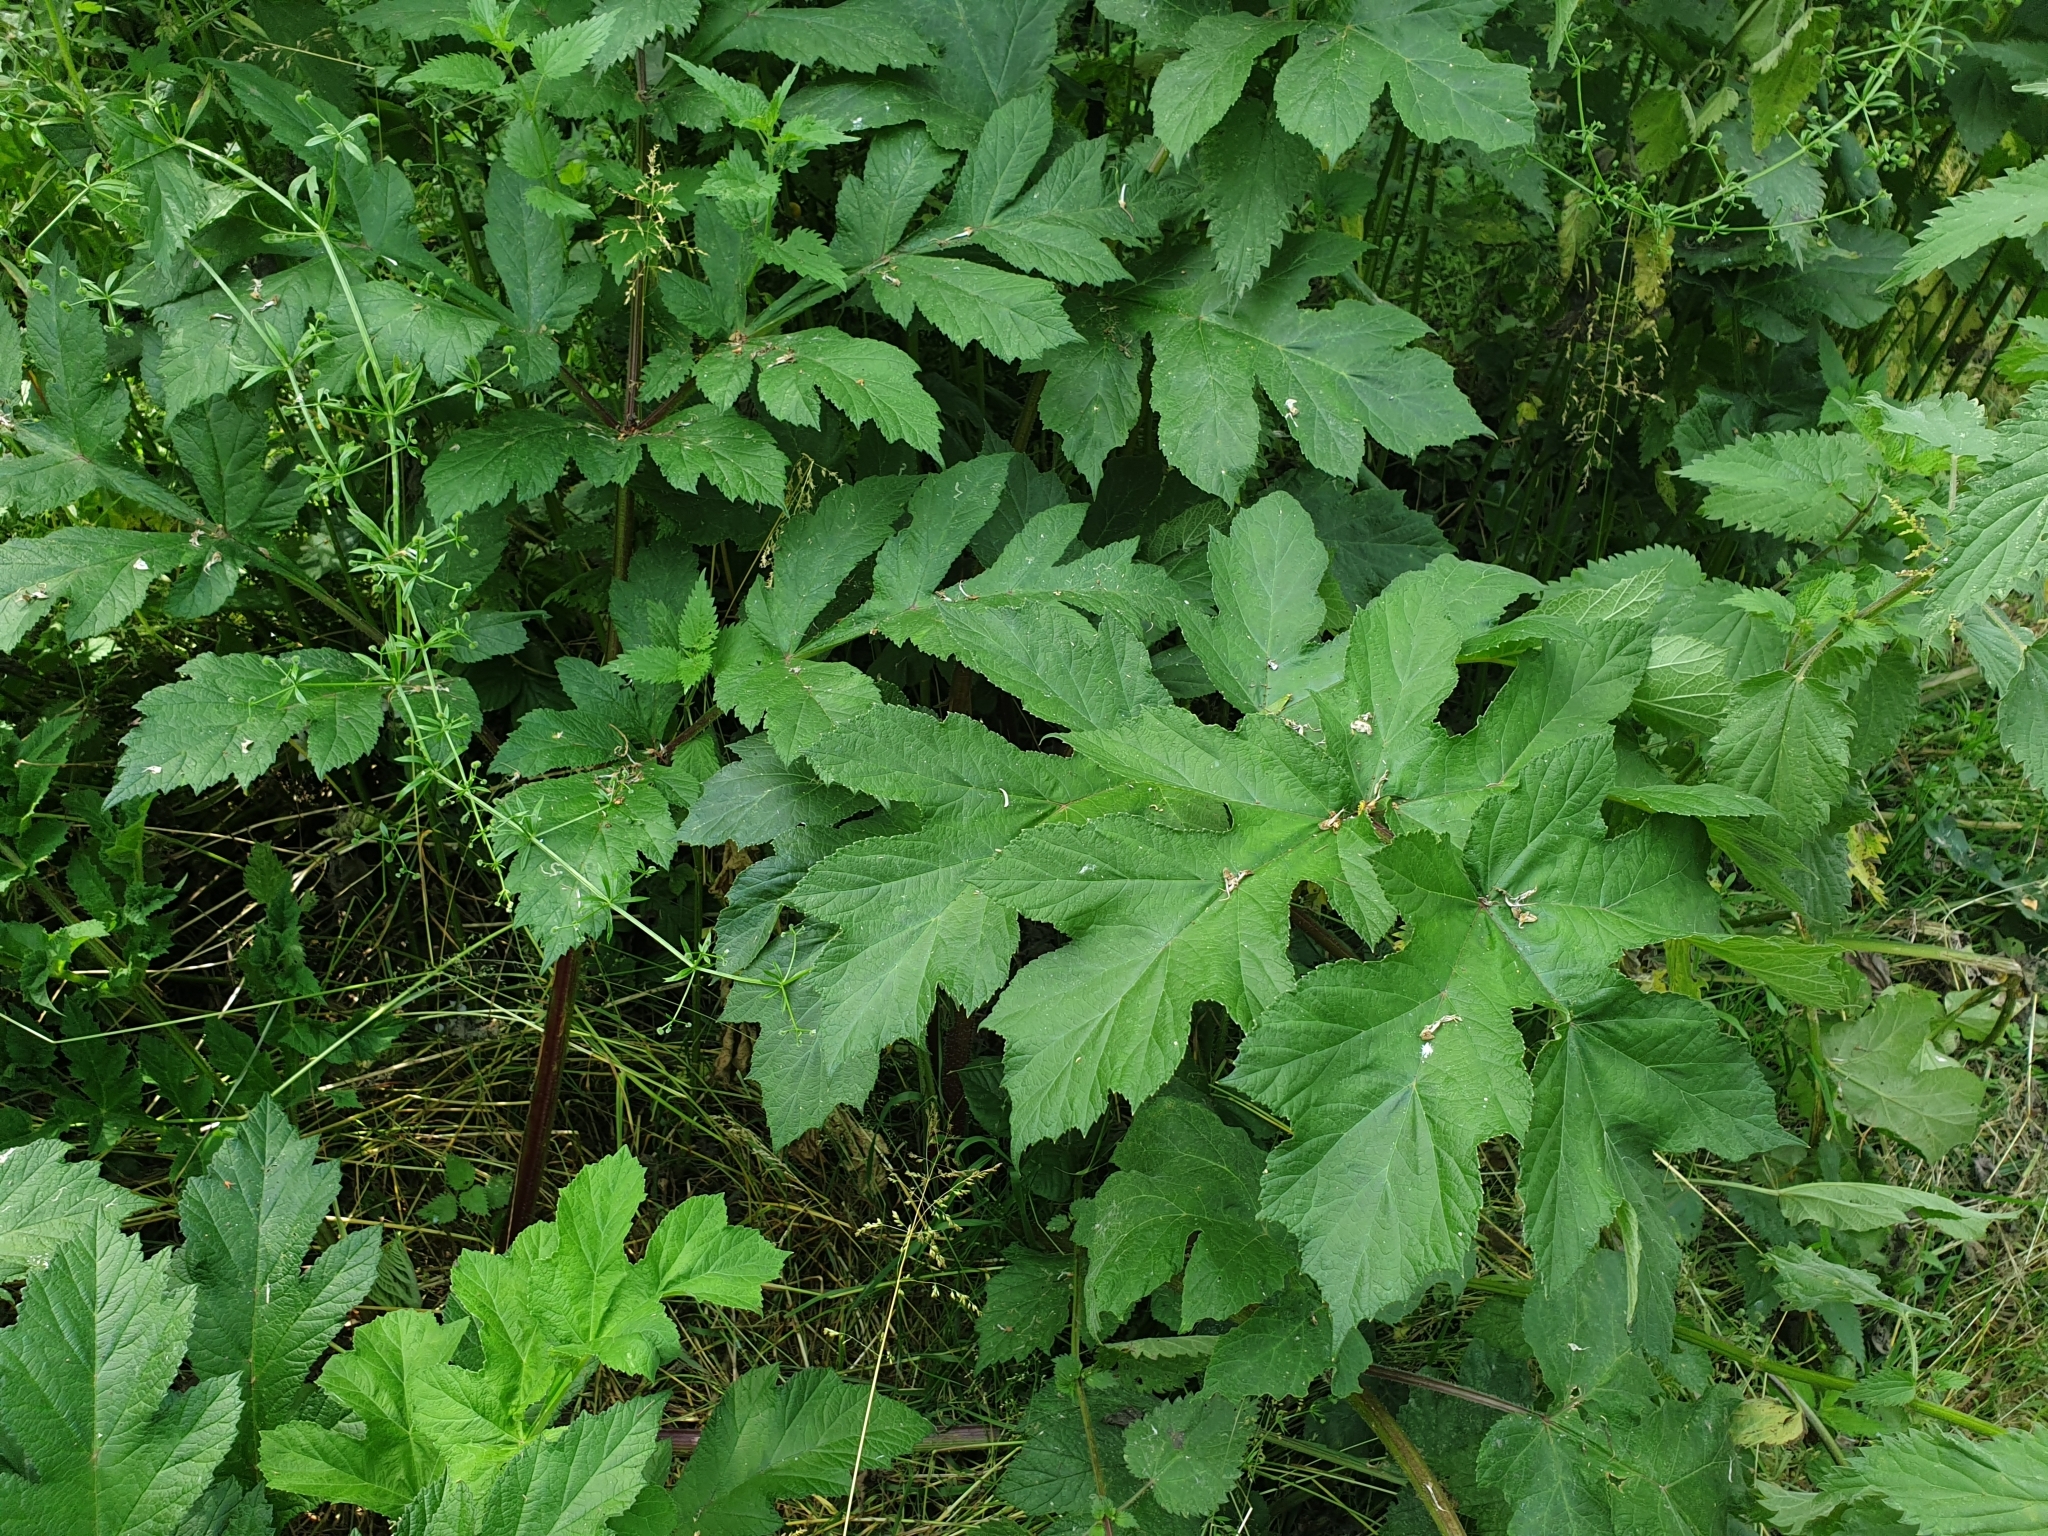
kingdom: Plantae
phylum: Tracheophyta
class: Magnoliopsida
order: Apiales
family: Apiaceae
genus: Heracleum
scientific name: Heracleum sphondylium
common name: Hogweed
